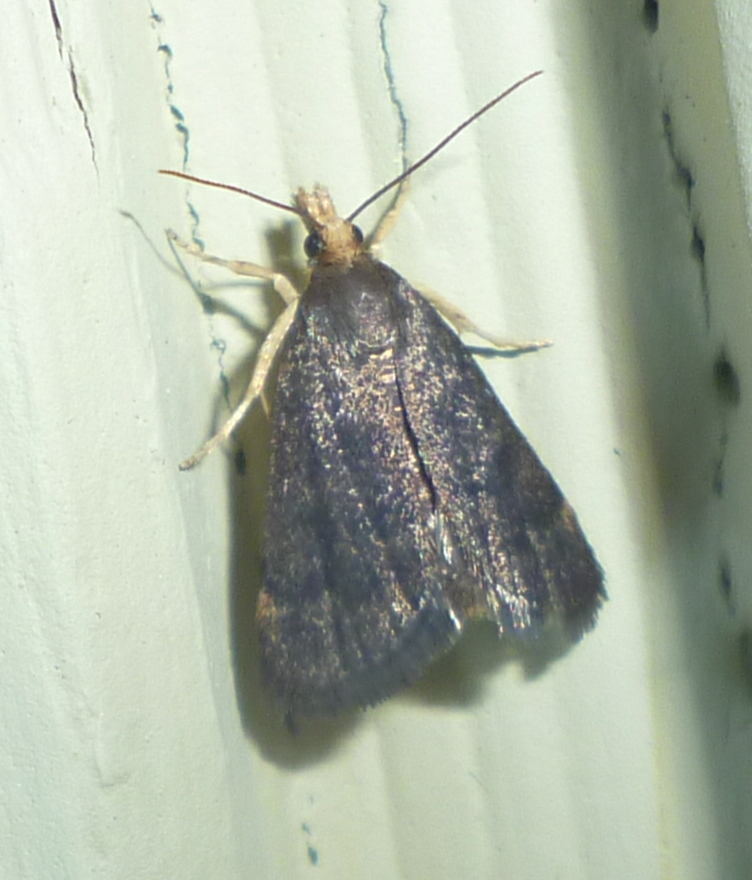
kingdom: Animalia
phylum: Arthropoda
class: Insecta
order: Lepidoptera
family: Crambidae
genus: Pyrausta
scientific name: Pyrausta merrickalis
